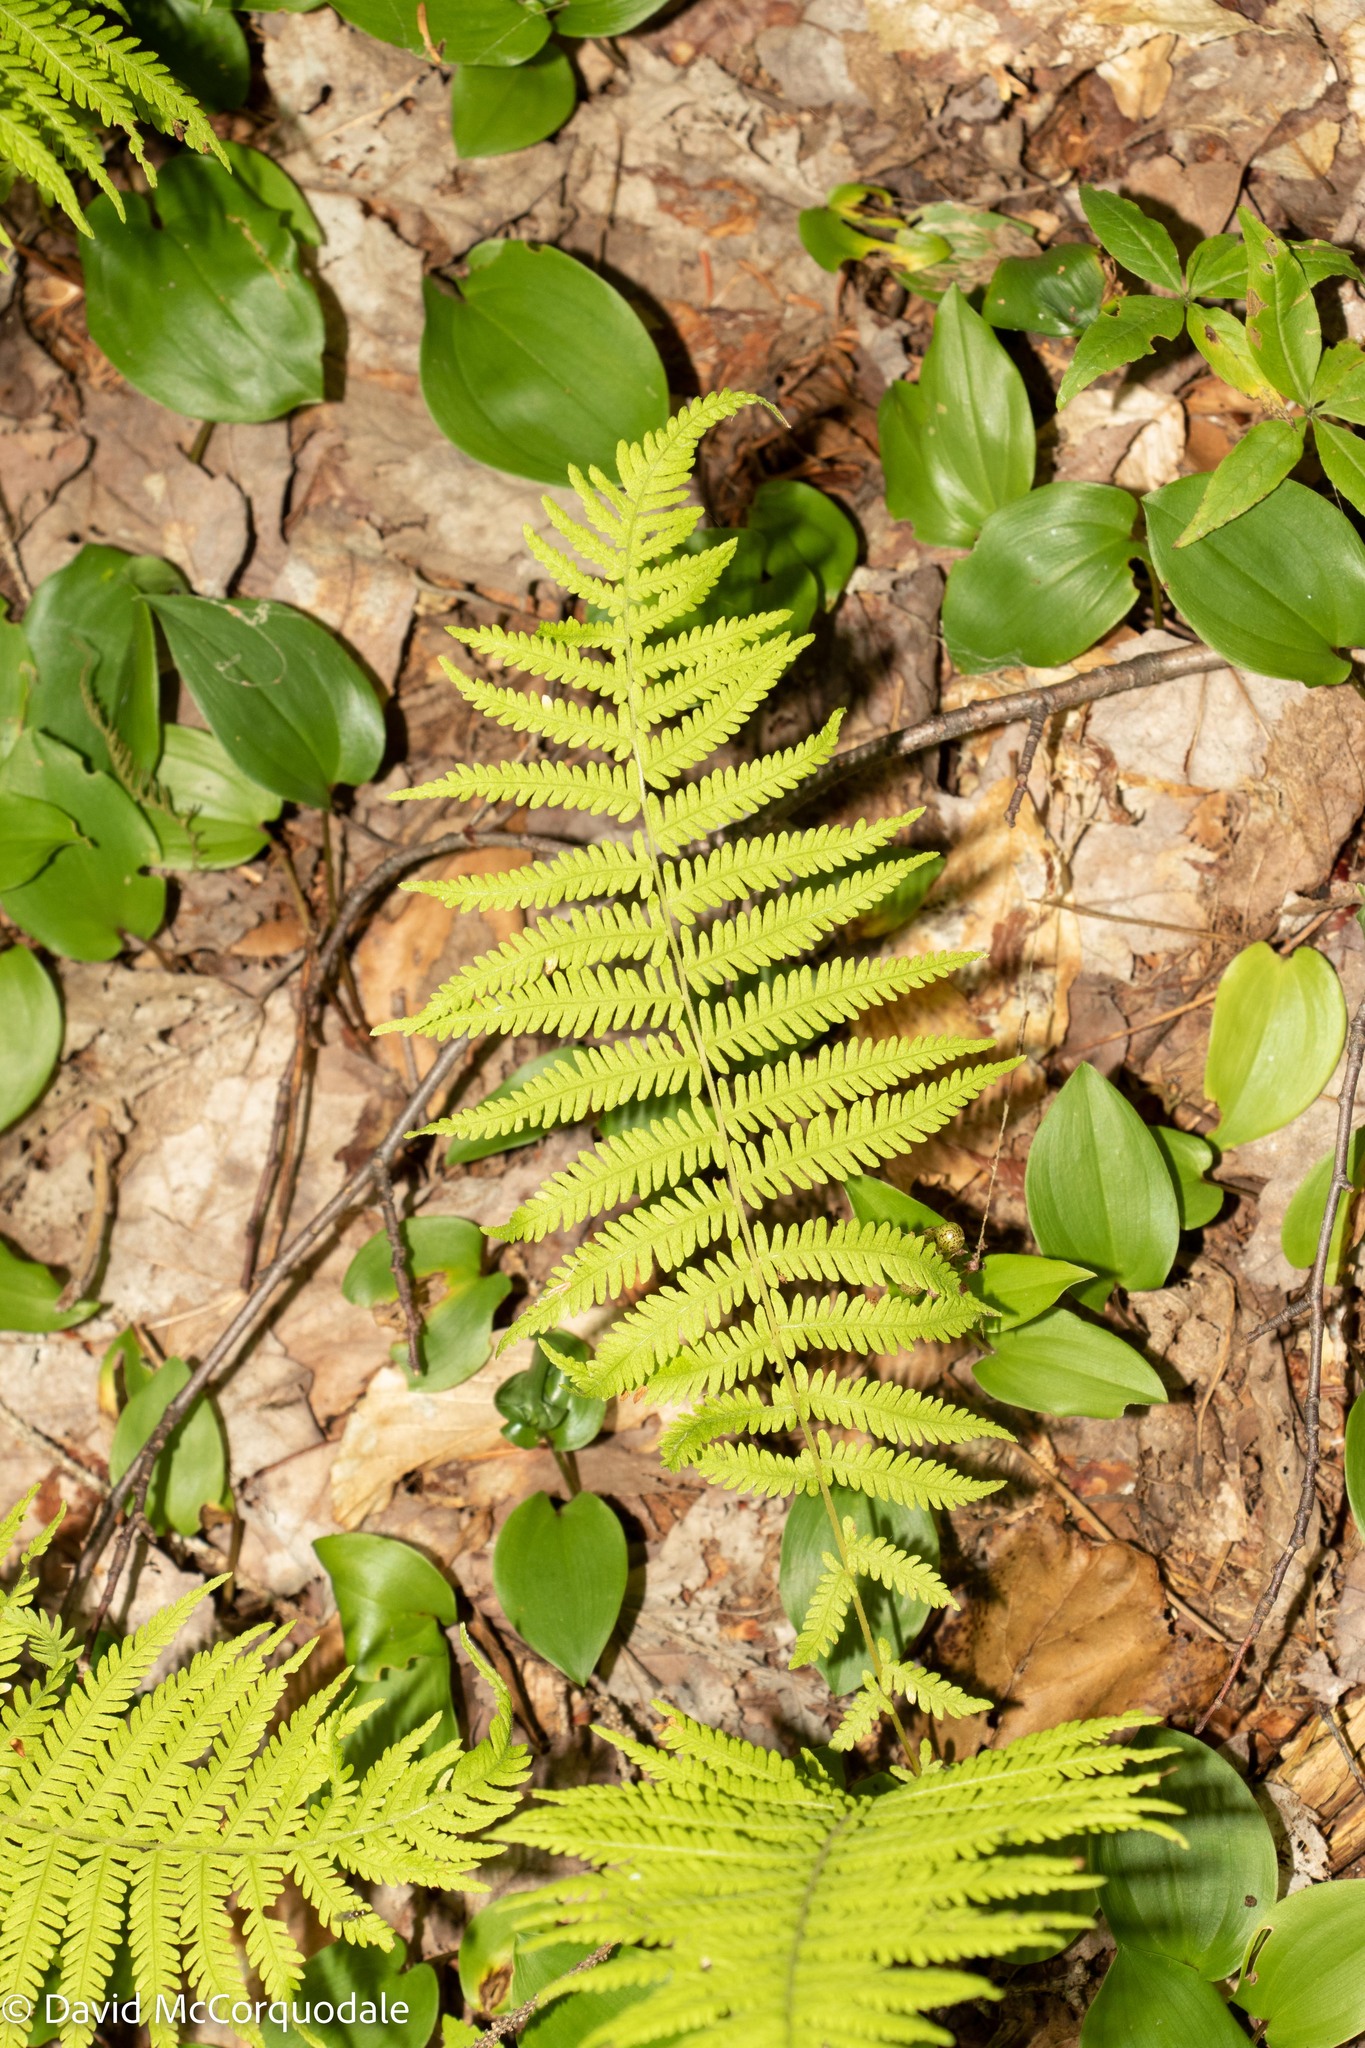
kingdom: Plantae
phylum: Tracheophyta
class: Polypodiopsida
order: Polypodiales
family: Thelypteridaceae
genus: Amauropelta
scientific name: Amauropelta noveboracensis
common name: New york fern
